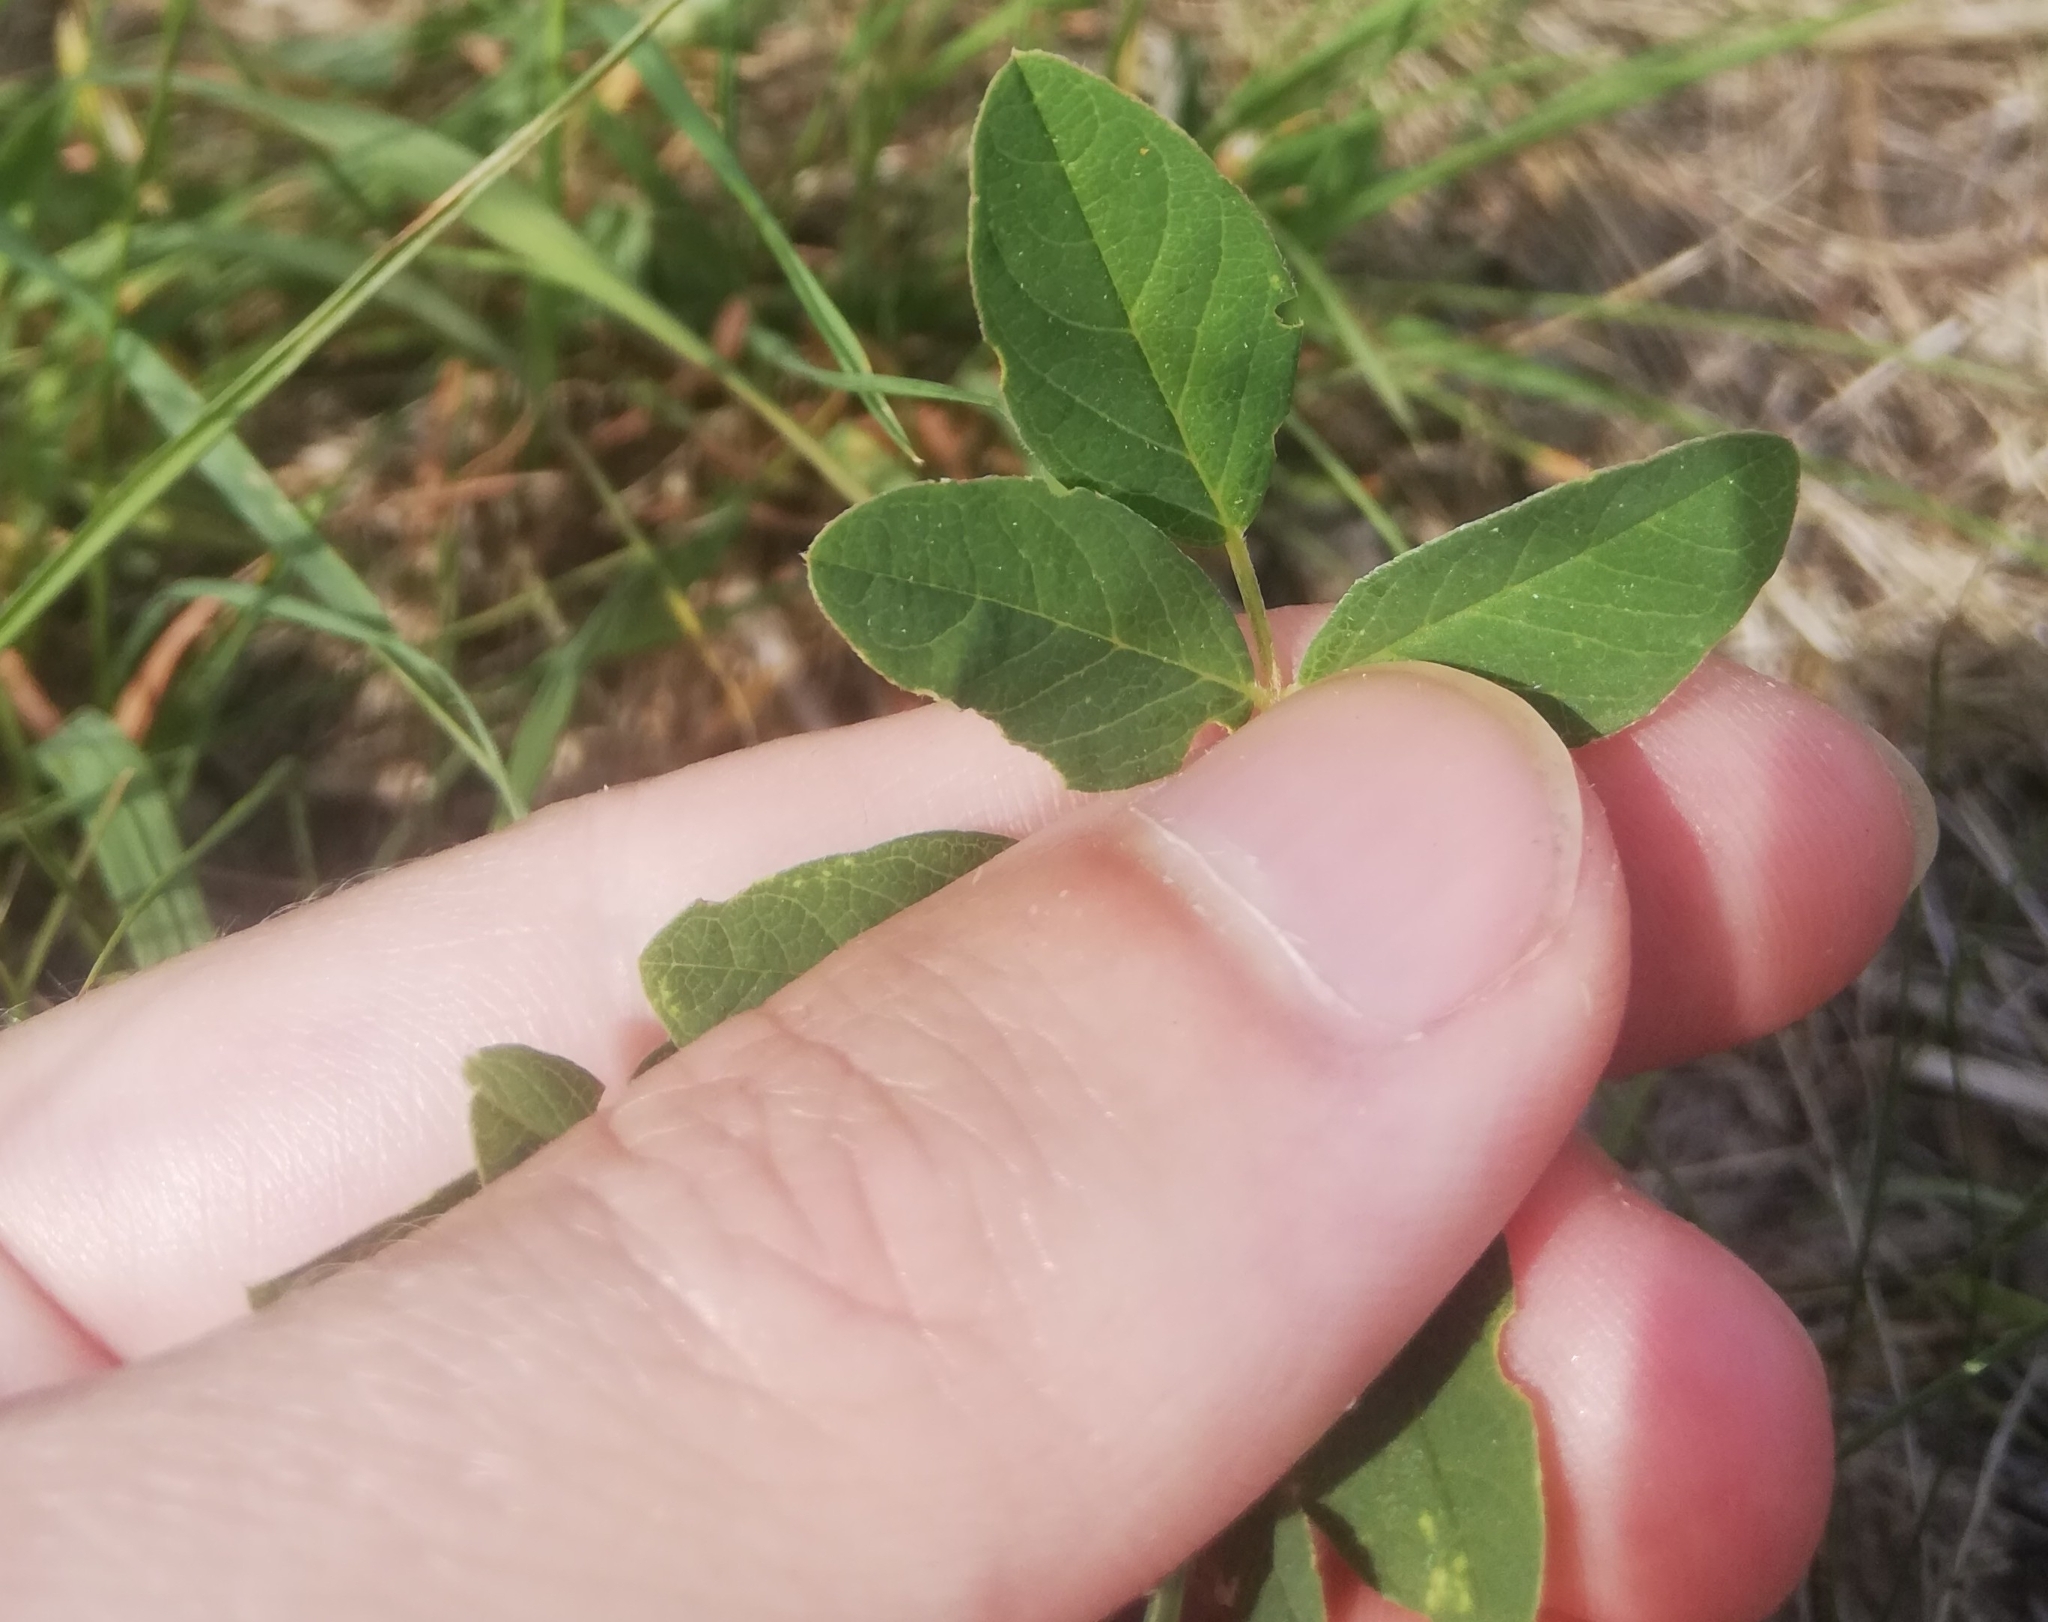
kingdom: Plantae
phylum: Tracheophyta
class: Magnoliopsida
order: Fabales
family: Fabaceae
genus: Astragalus
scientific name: Astragalus glycyphyllos
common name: Wild liquorice
